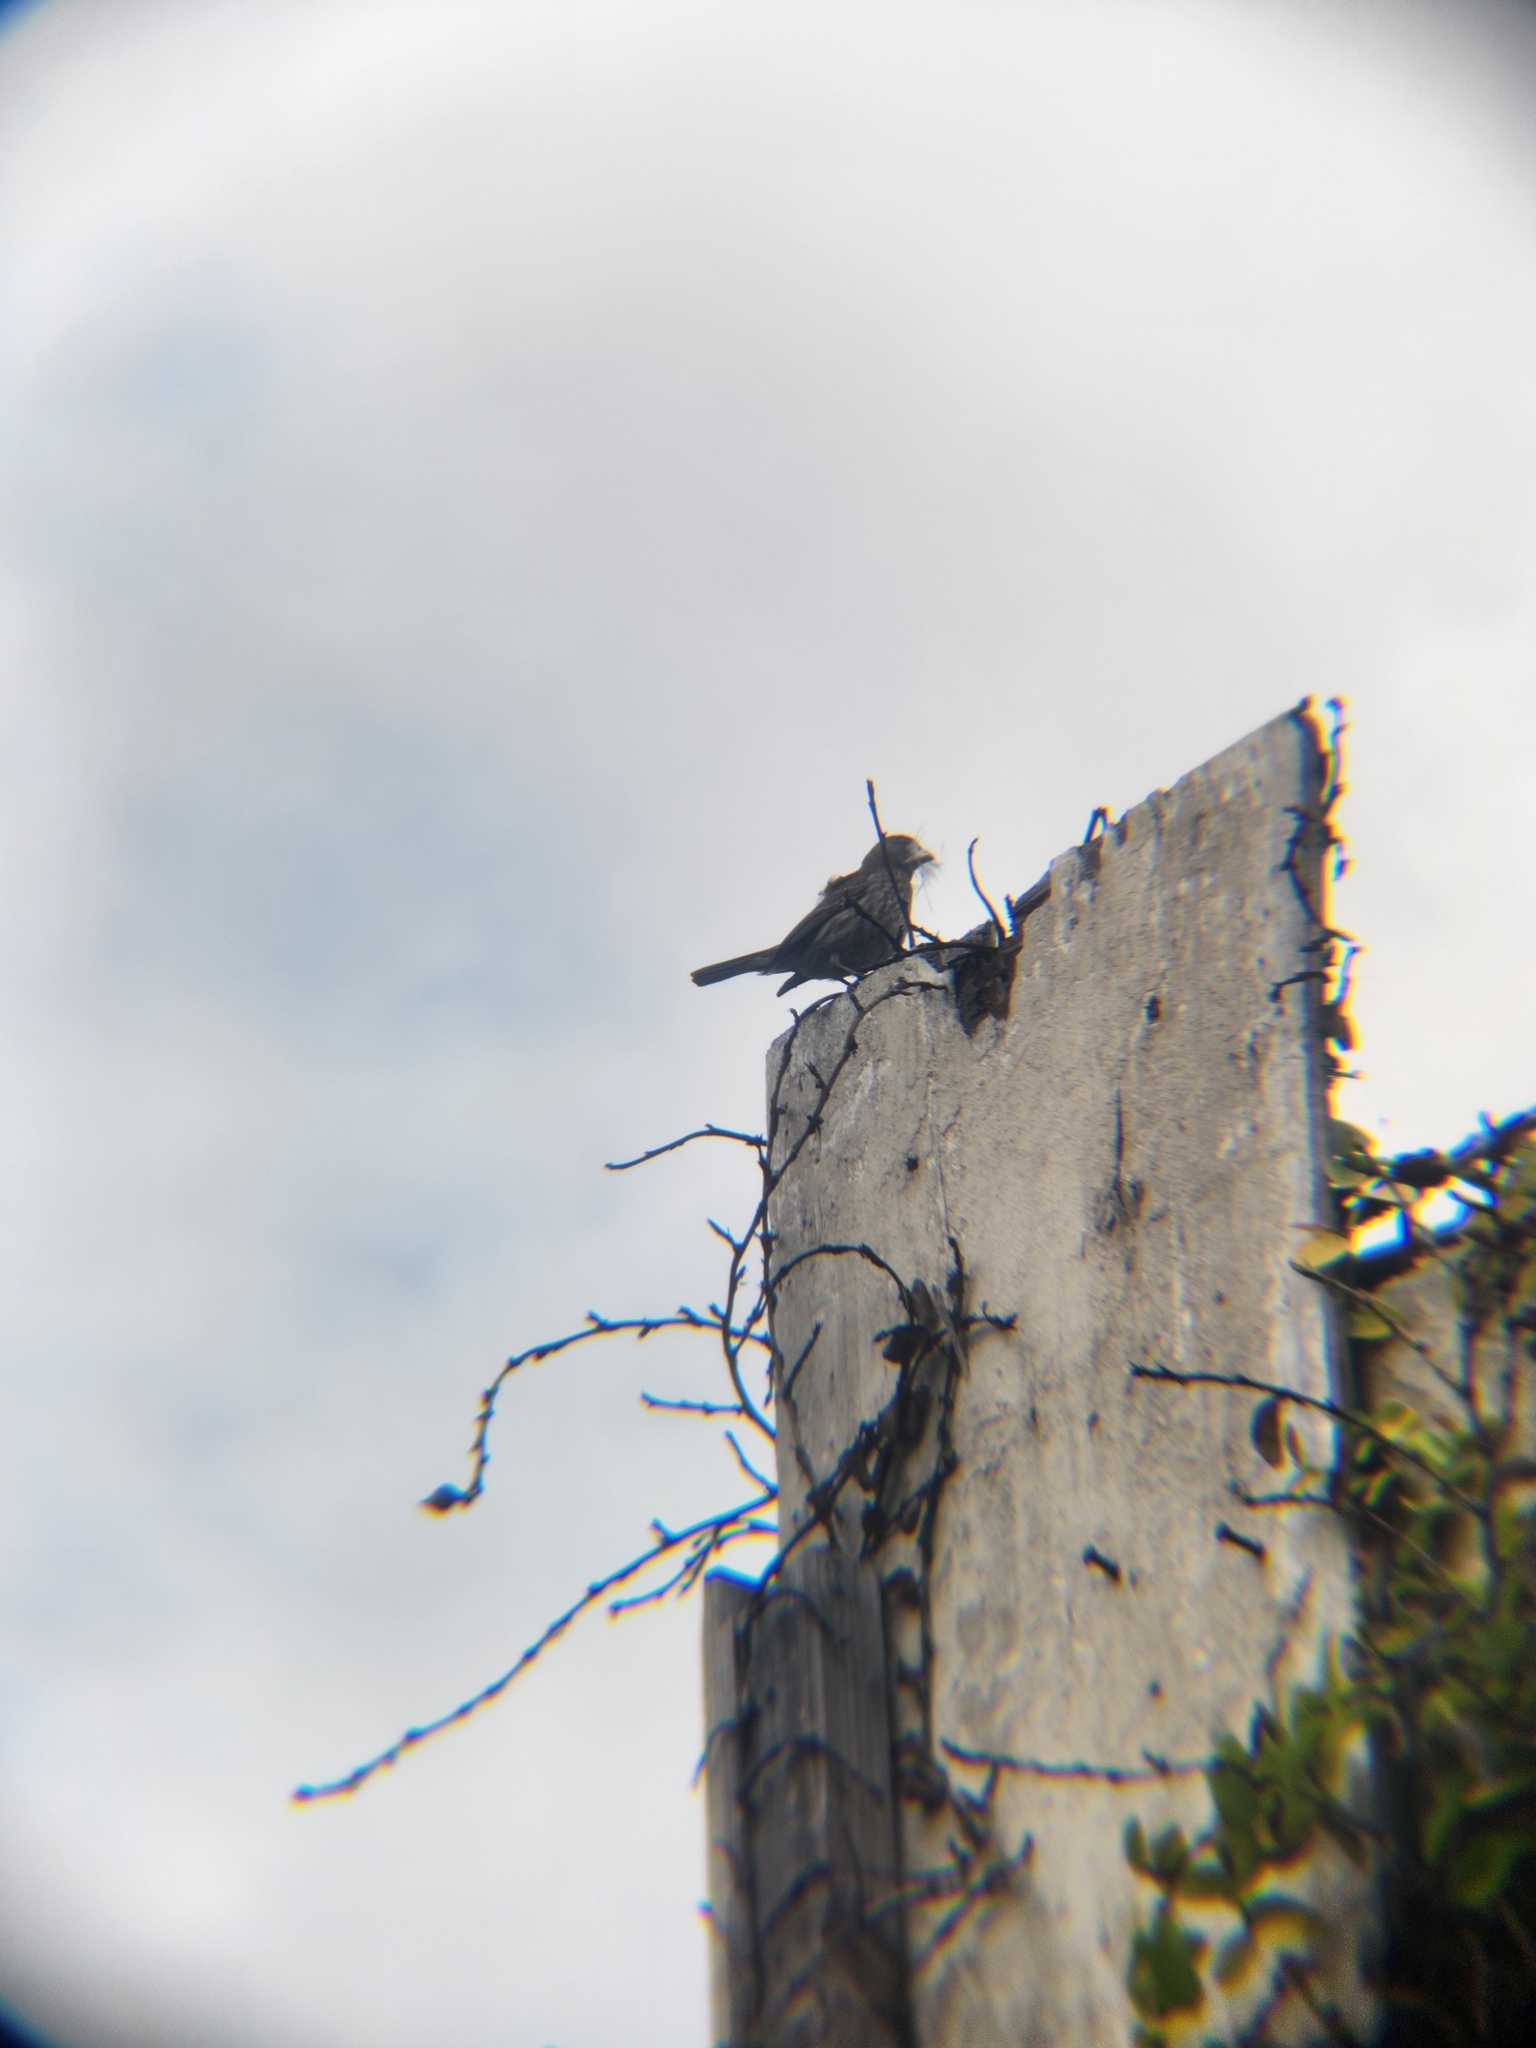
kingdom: Animalia
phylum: Chordata
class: Aves
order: Passeriformes
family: Fringillidae
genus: Haemorhous
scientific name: Haemorhous mexicanus
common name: House finch
